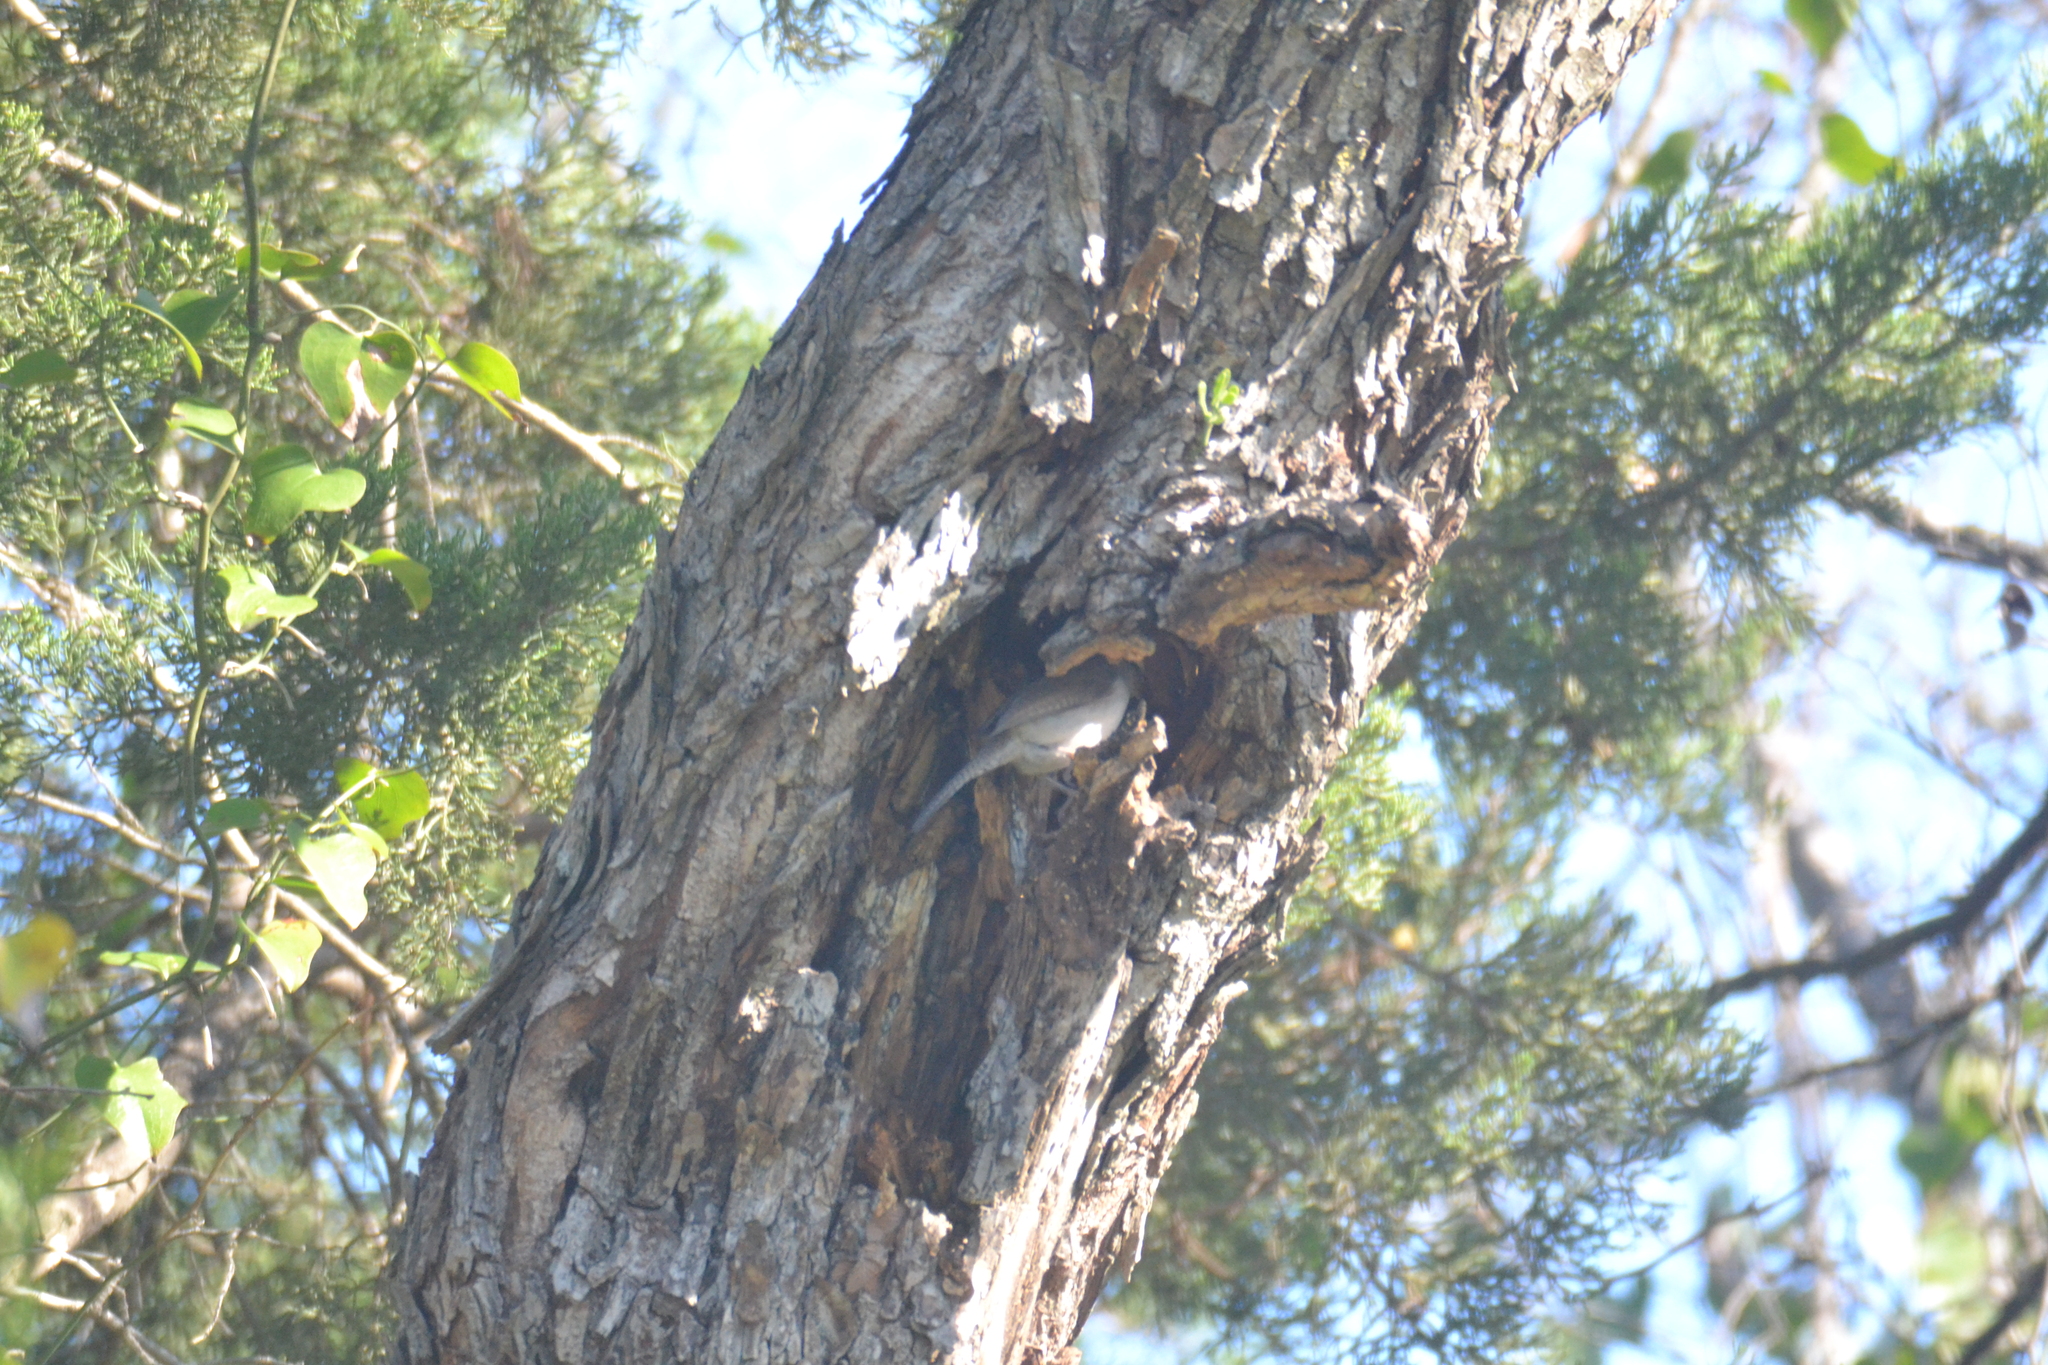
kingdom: Animalia
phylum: Chordata
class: Aves
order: Passeriformes
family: Troglodytidae
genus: Thryomanes
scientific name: Thryomanes bewickii
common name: Bewick's wren
